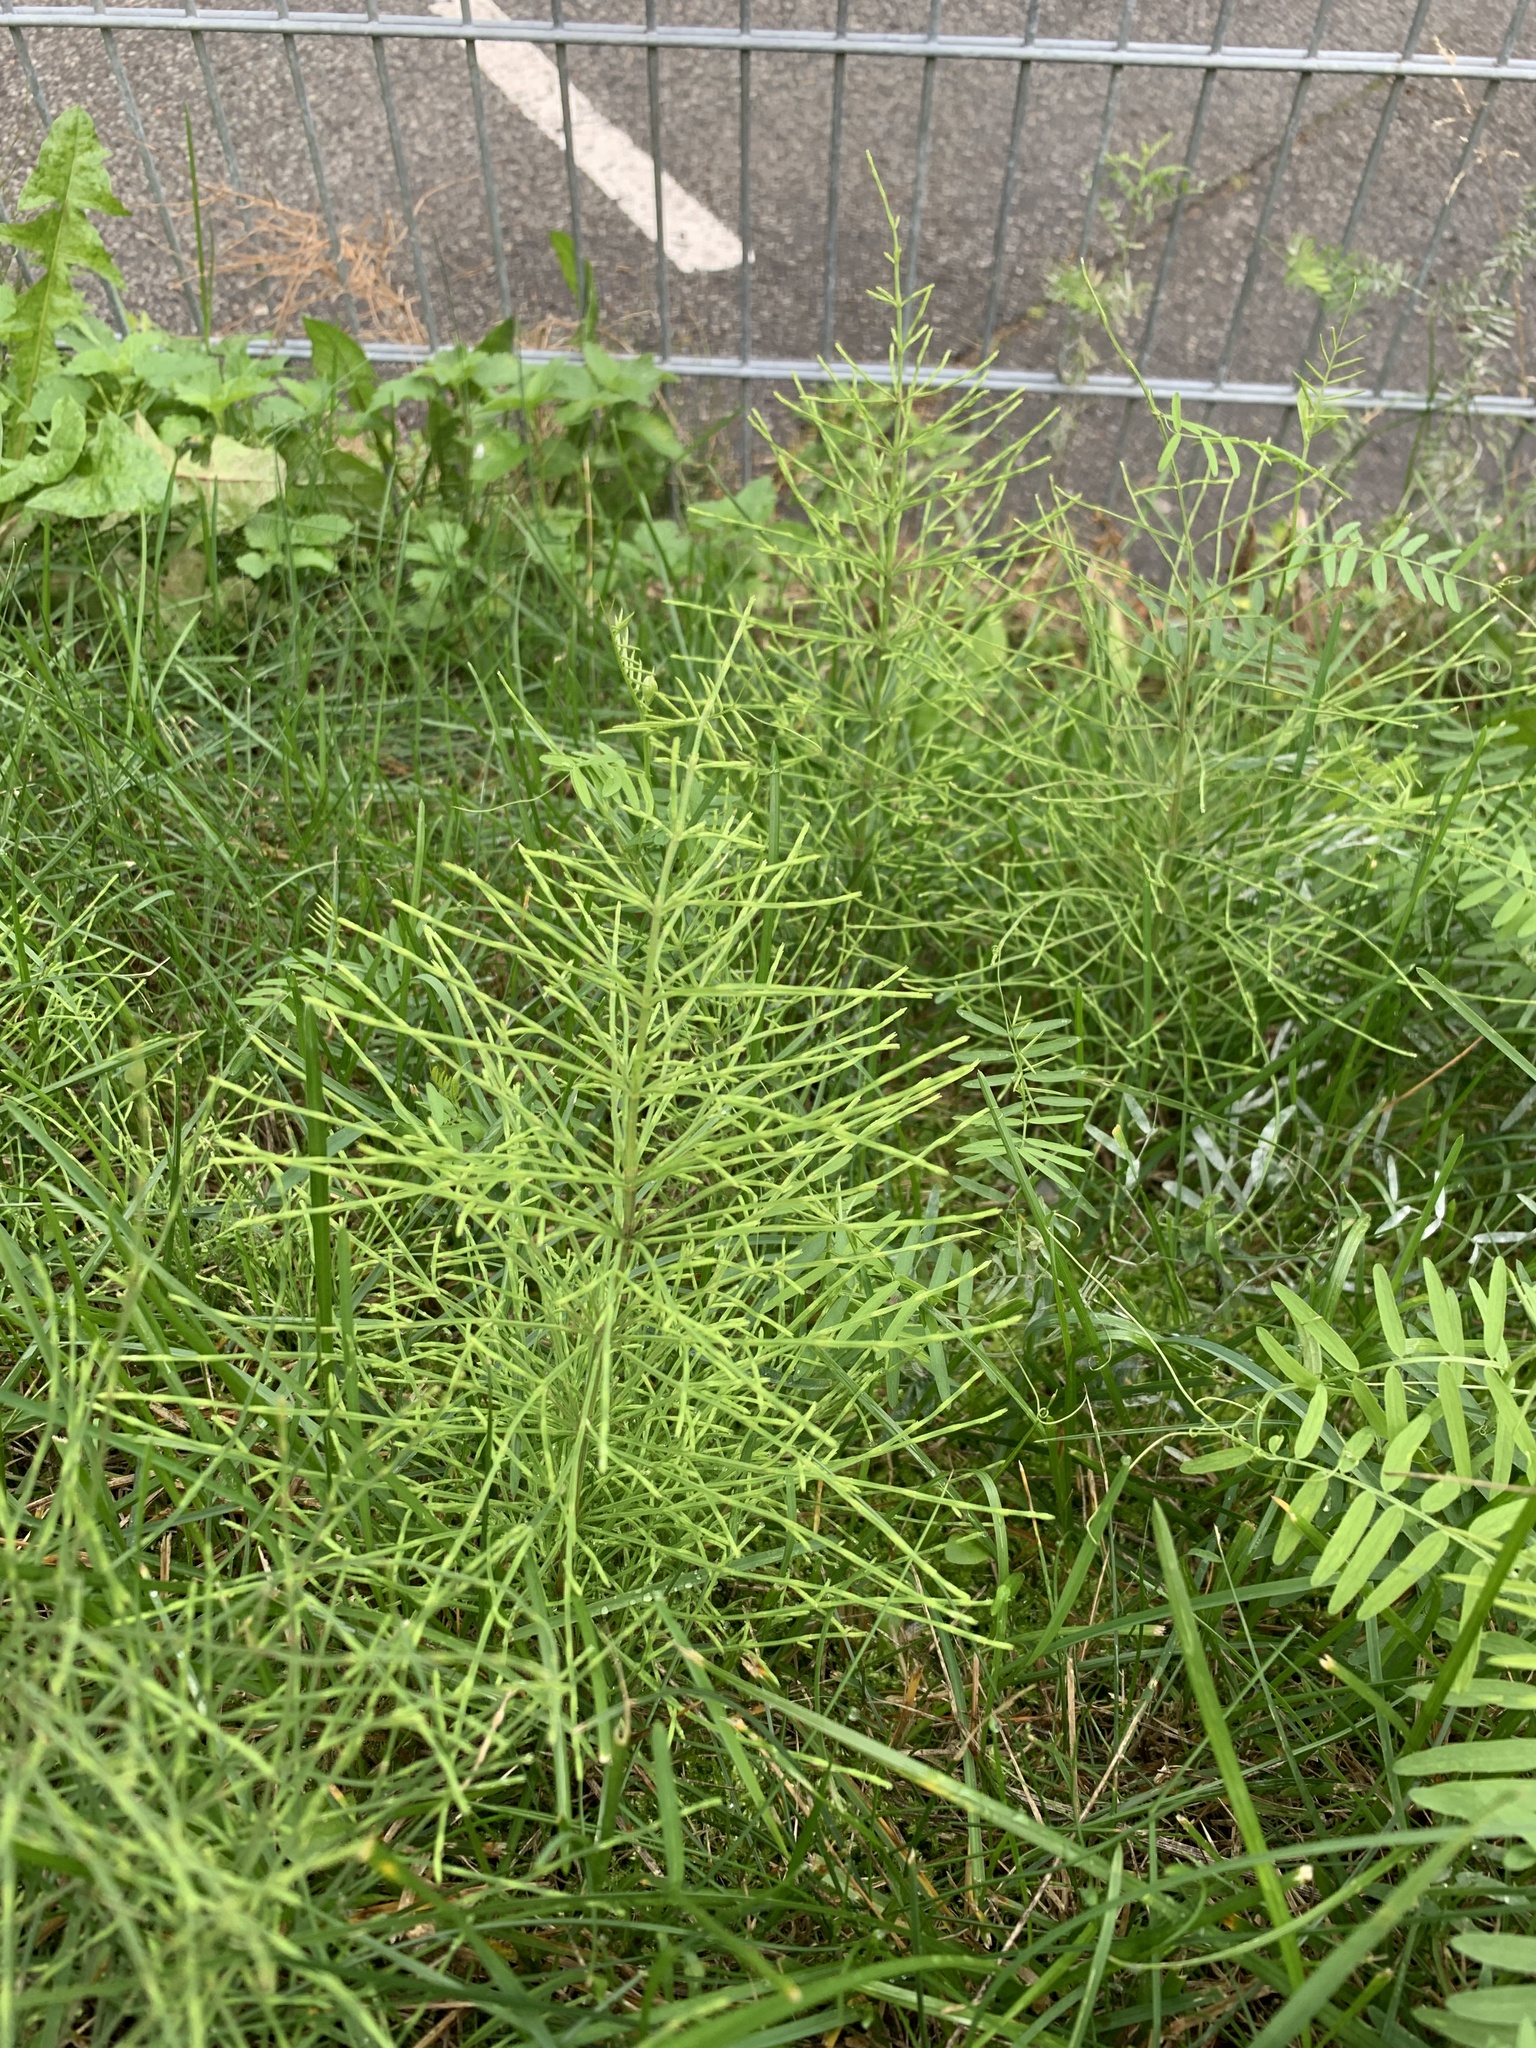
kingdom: Plantae
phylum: Tracheophyta
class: Polypodiopsida
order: Equisetales
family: Equisetaceae
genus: Equisetum
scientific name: Equisetum arvense
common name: Field horsetail
